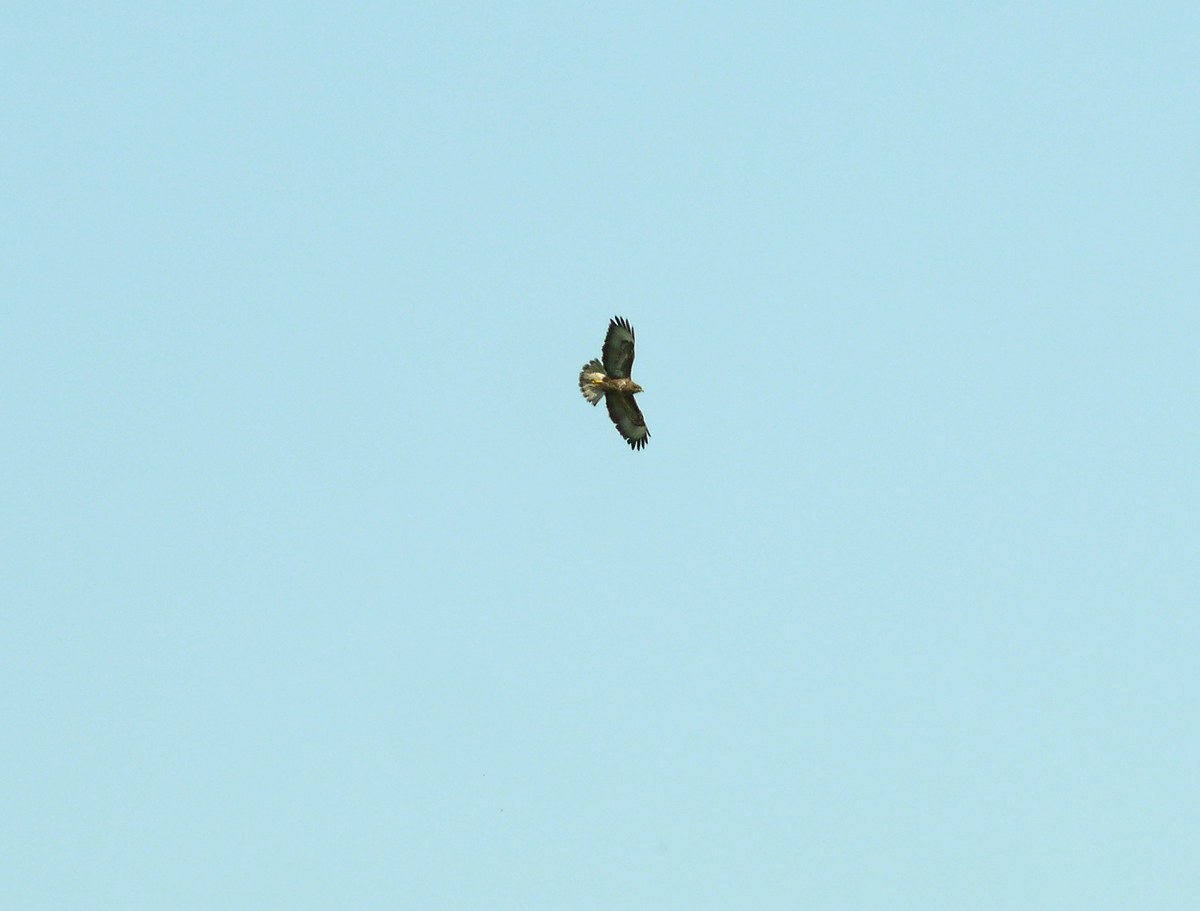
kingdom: Animalia
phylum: Chordata
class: Aves
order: Accipitriformes
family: Accipitridae
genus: Buteo
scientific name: Buteo buteo
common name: Common buzzard
